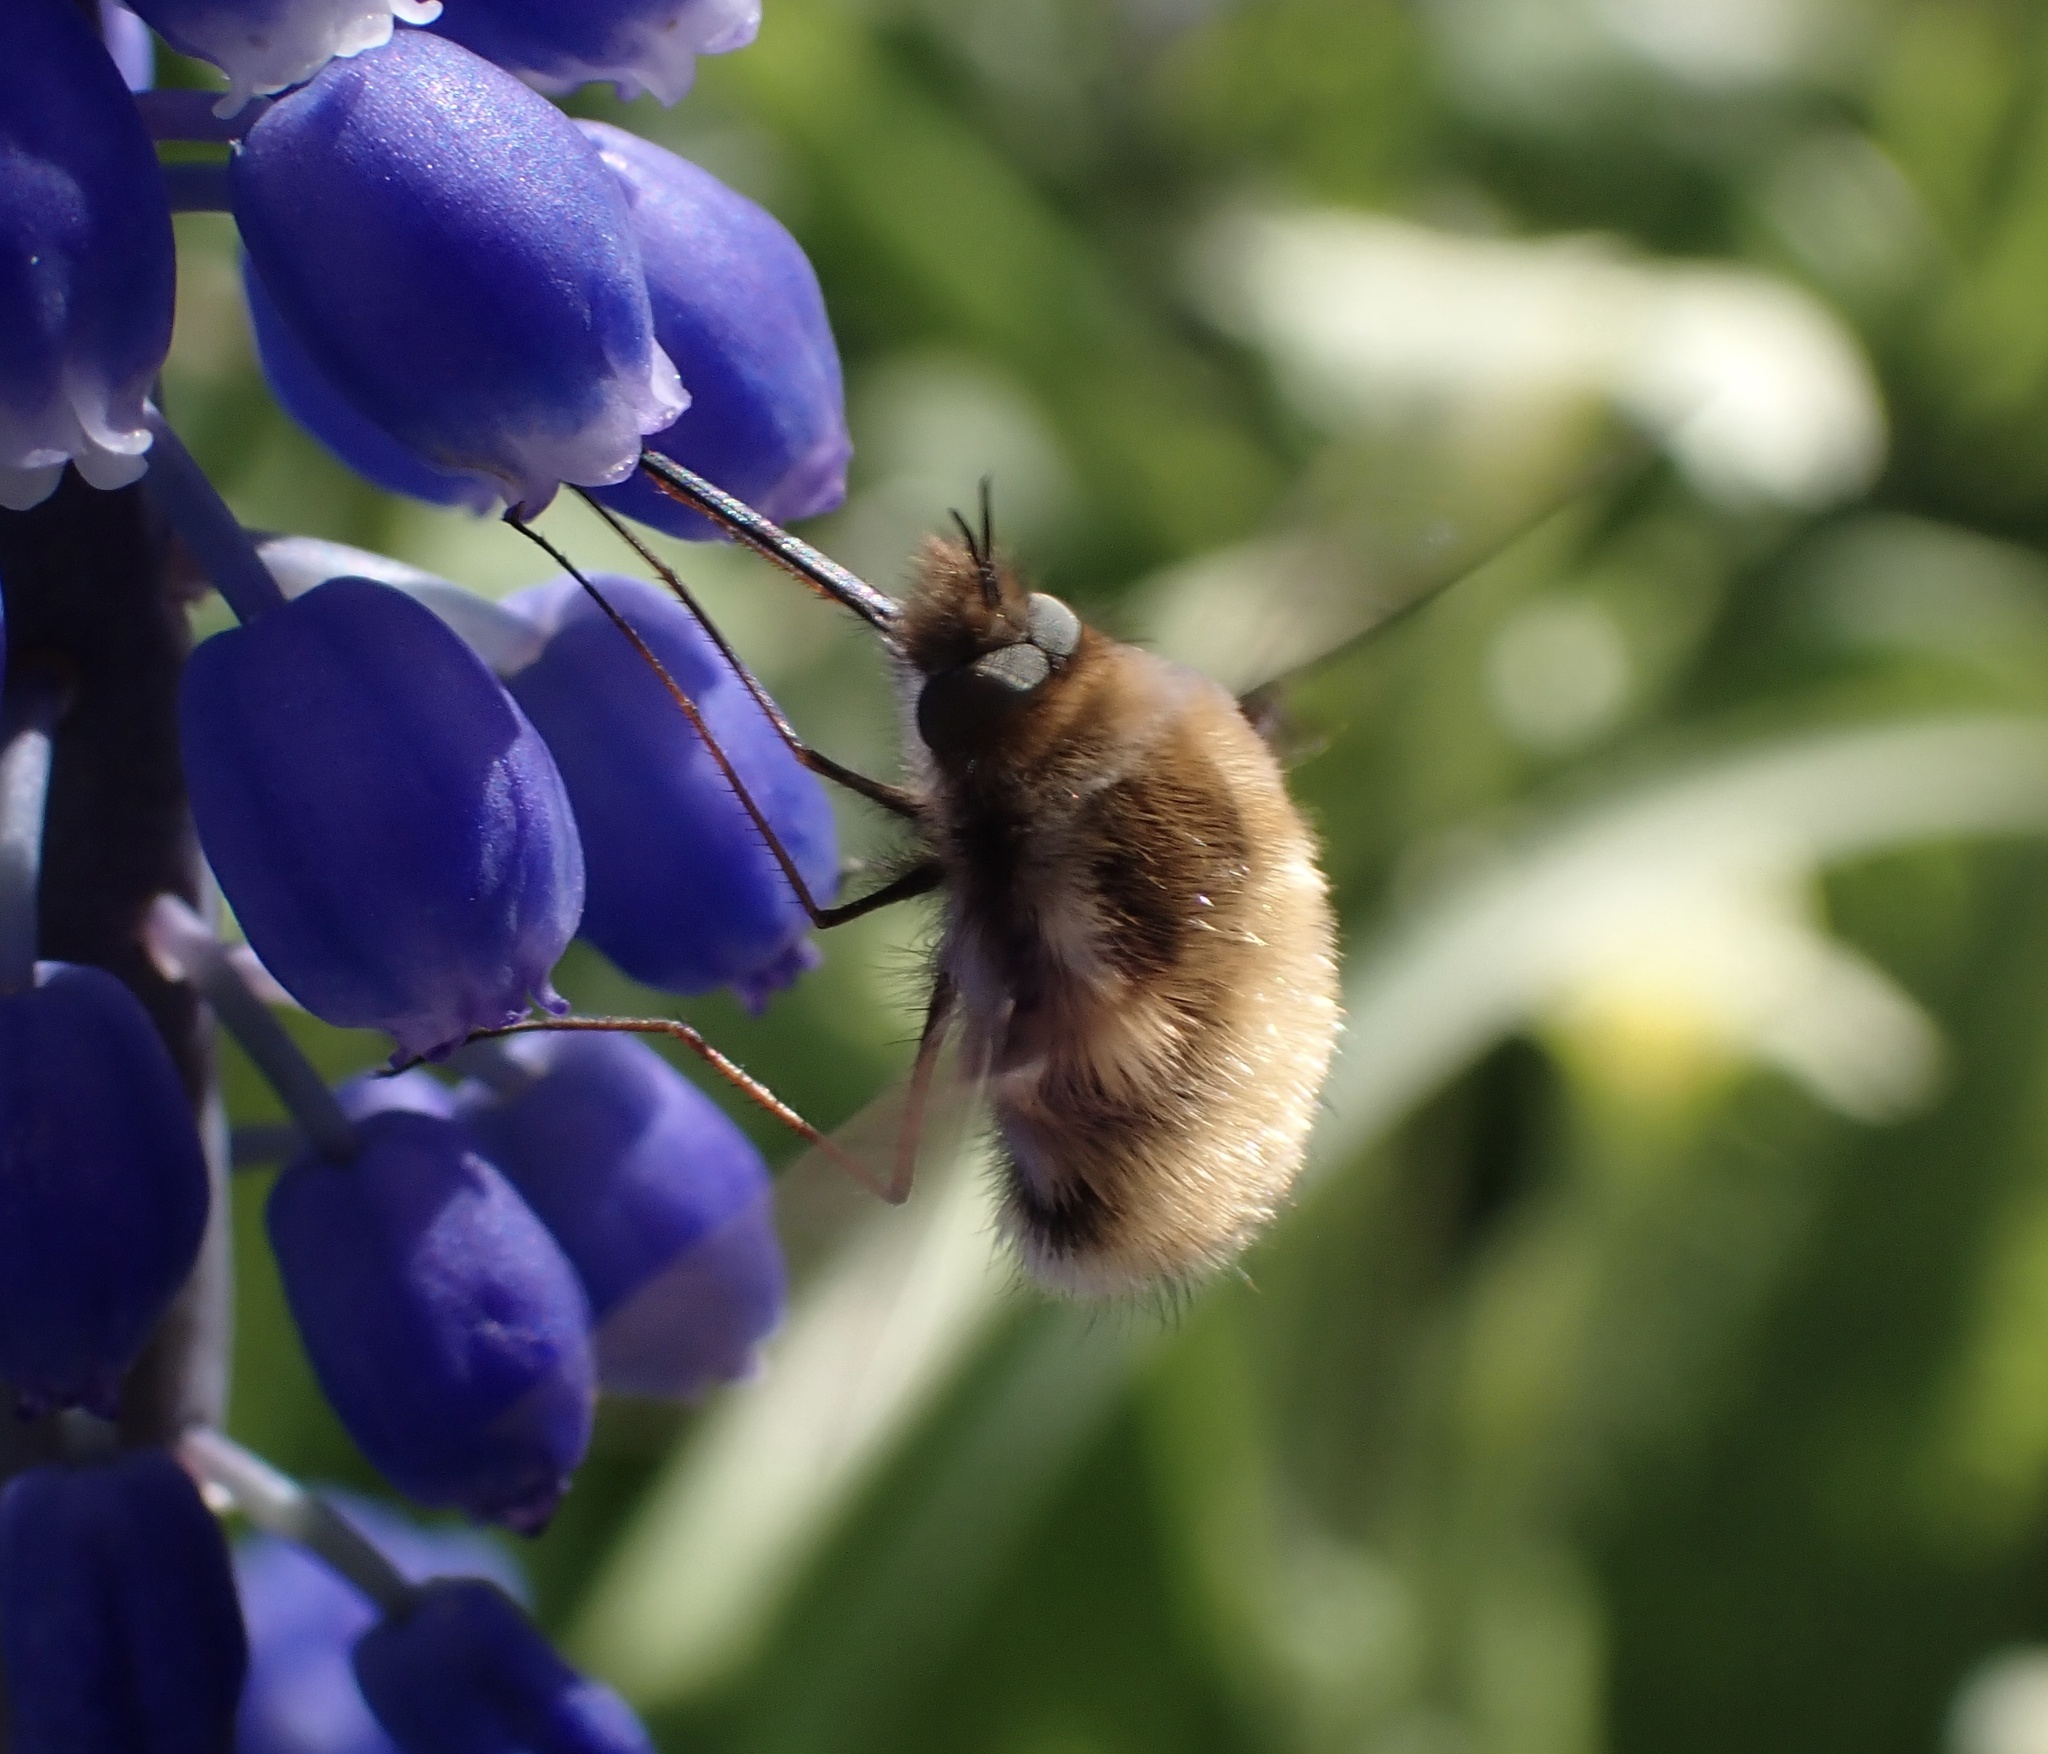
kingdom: Animalia
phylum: Arthropoda
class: Insecta
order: Diptera
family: Bombyliidae
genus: Bombylius
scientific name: Bombylius major
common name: Bee fly
